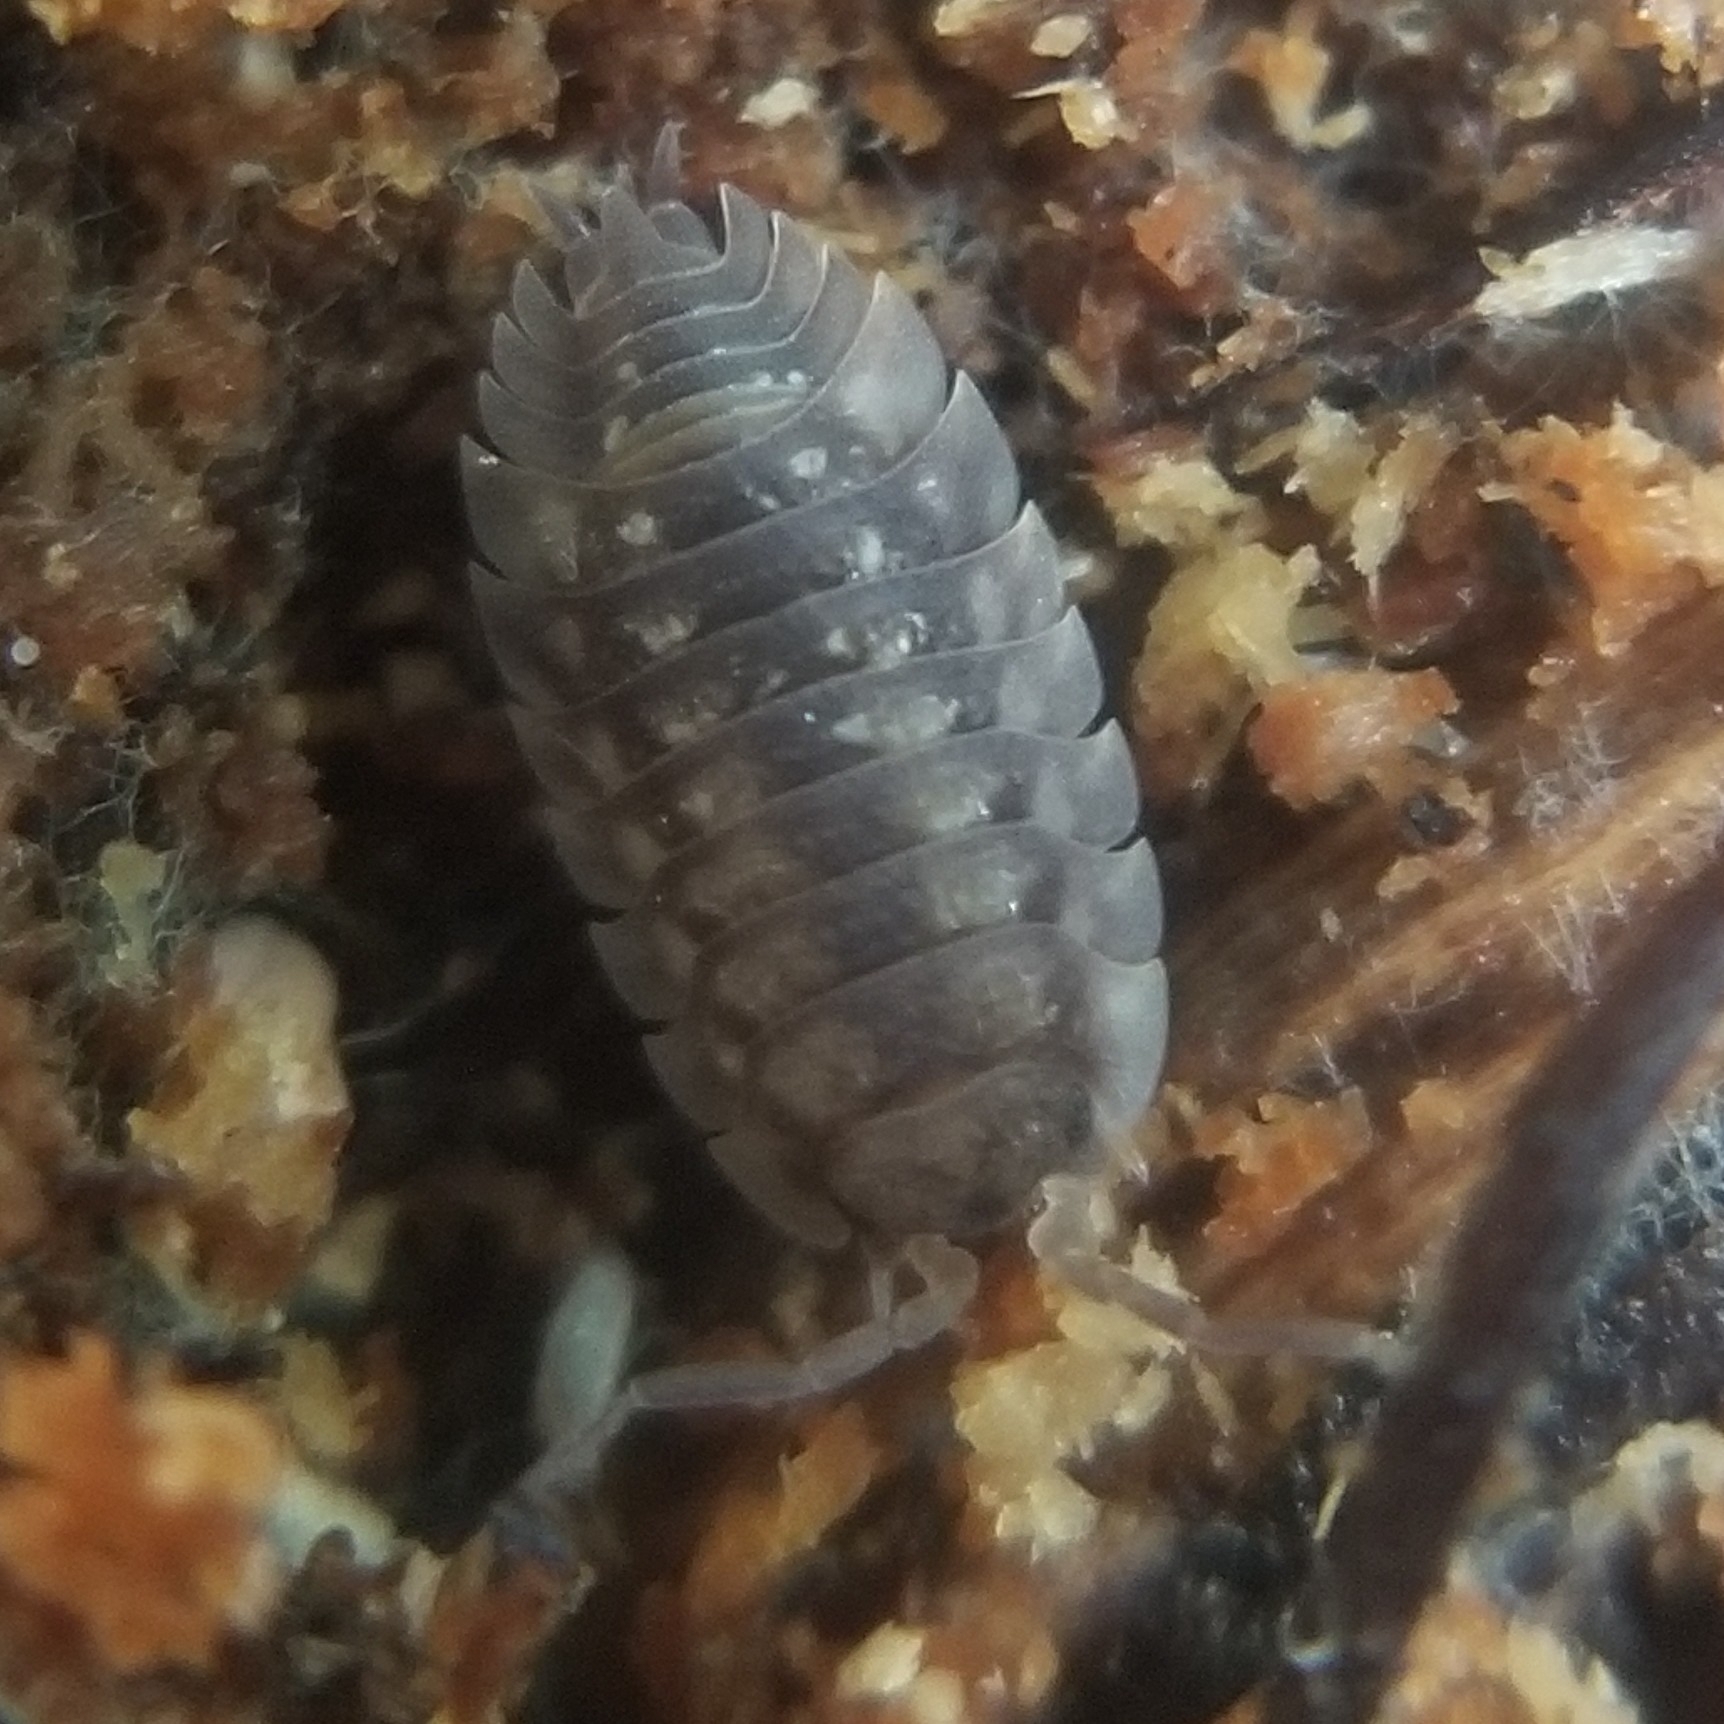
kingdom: Animalia
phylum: Arthropoda
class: Malacostraca
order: Isopoda
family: Oniscidae
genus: Oniscus
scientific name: Oniscus asellus
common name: Common shiny woodlouse
